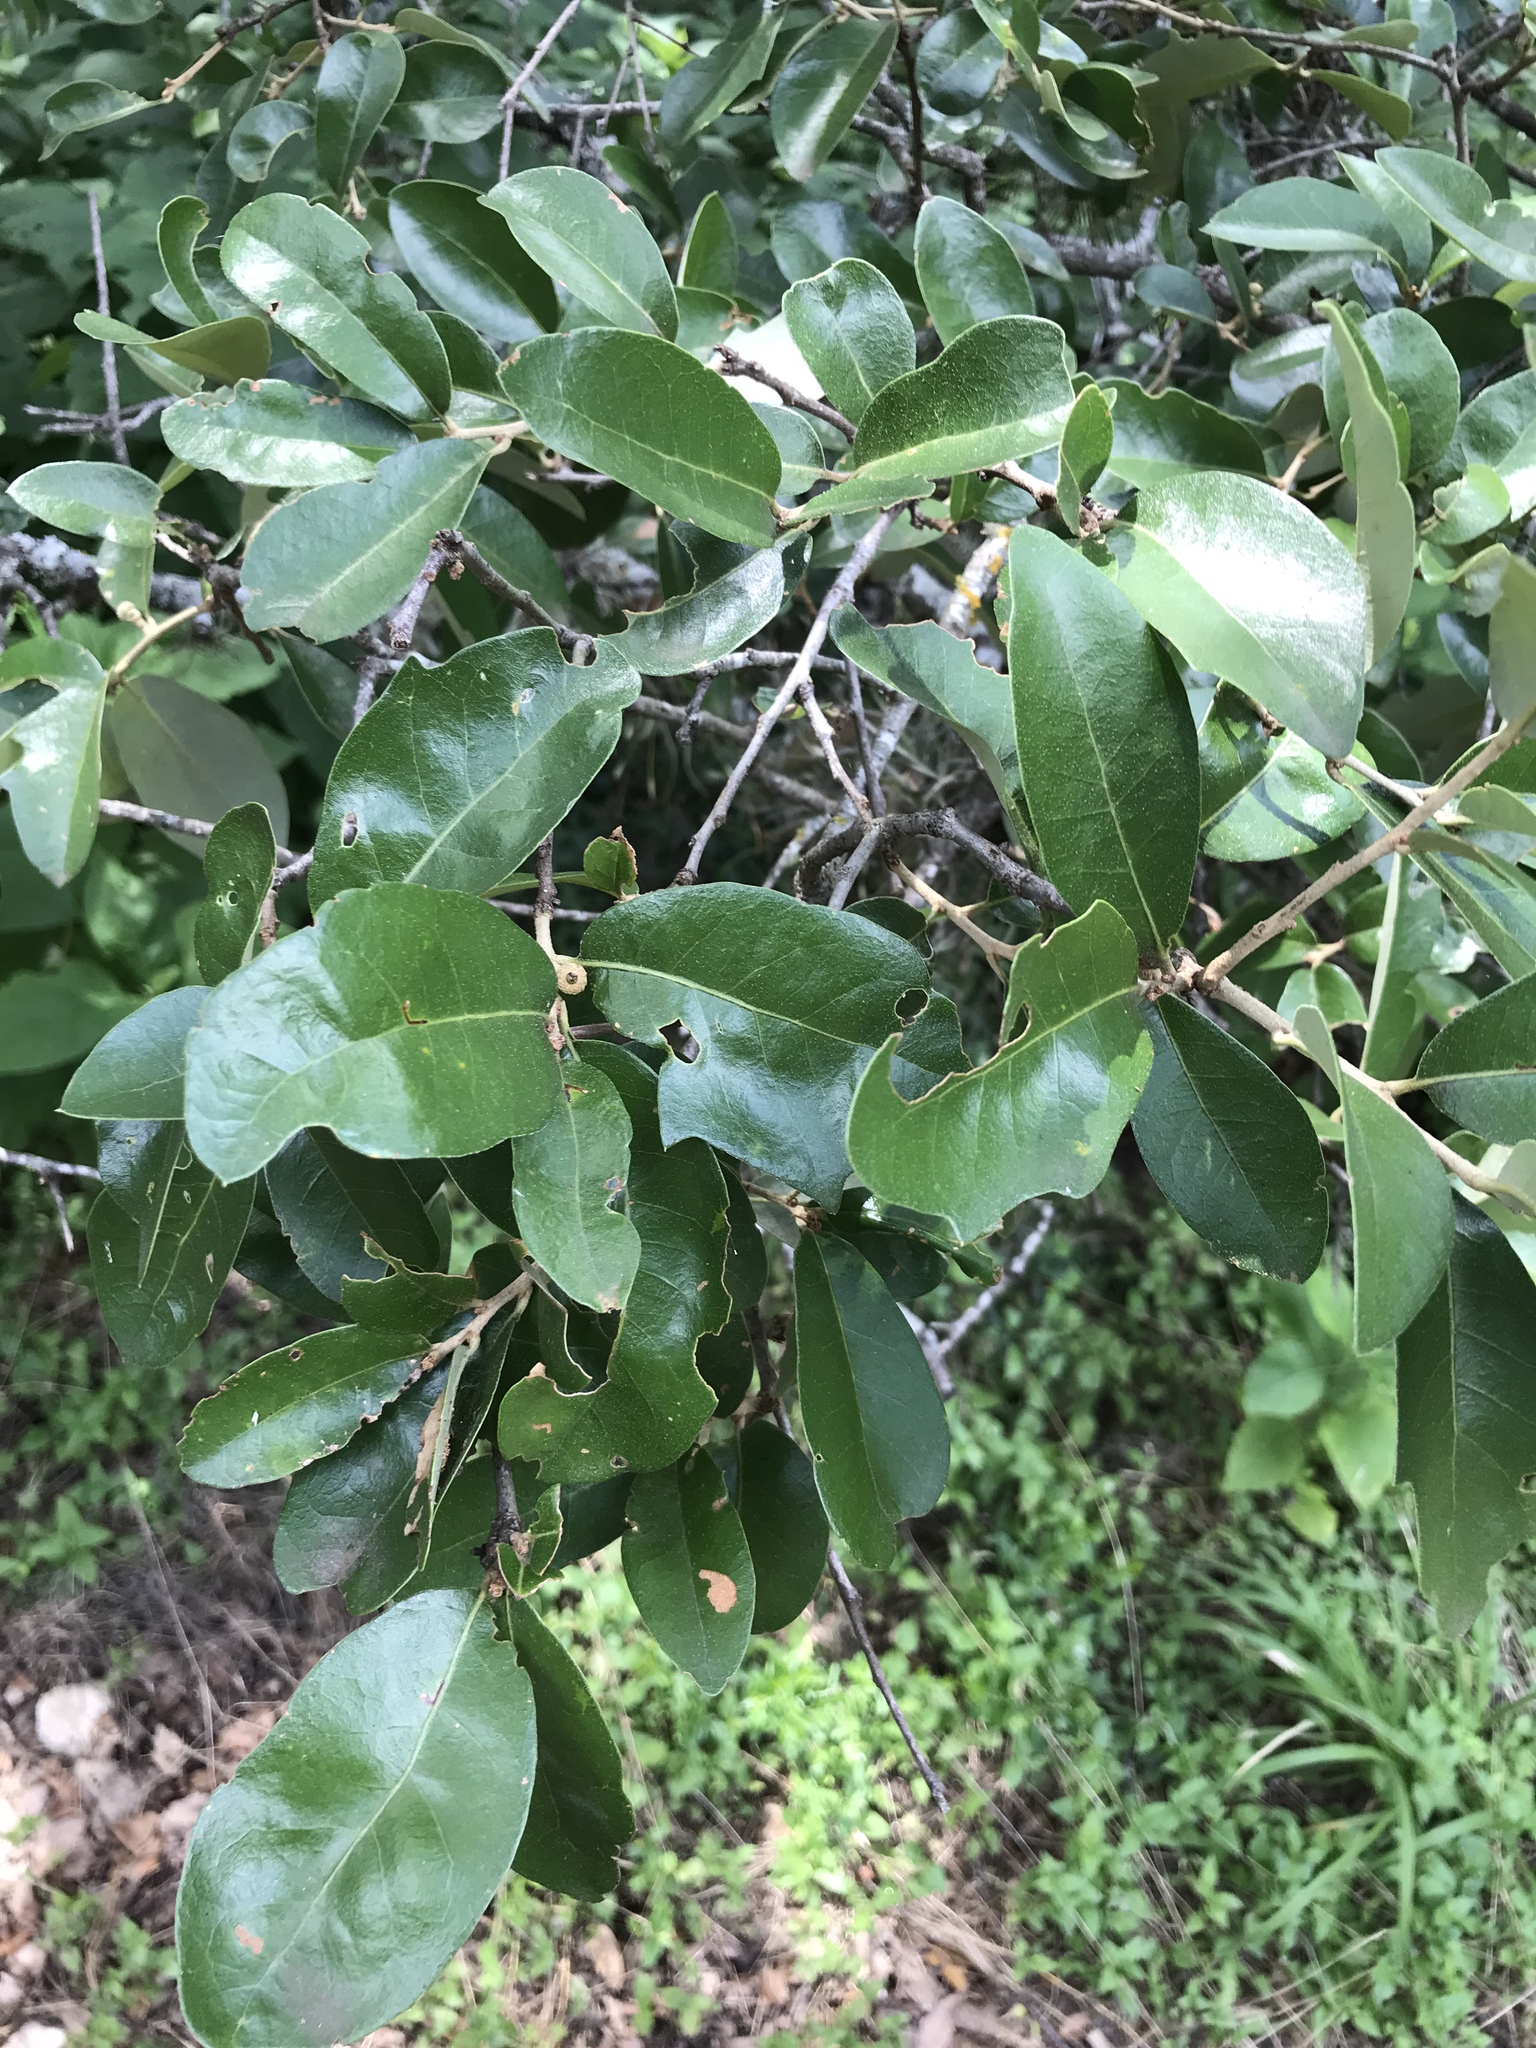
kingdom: Plantae
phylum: Tracheophyta
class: Magnoliopsida
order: Fagales
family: Fagaceae
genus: Quercus
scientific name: Quercus fusiformis
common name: Texas live oak
